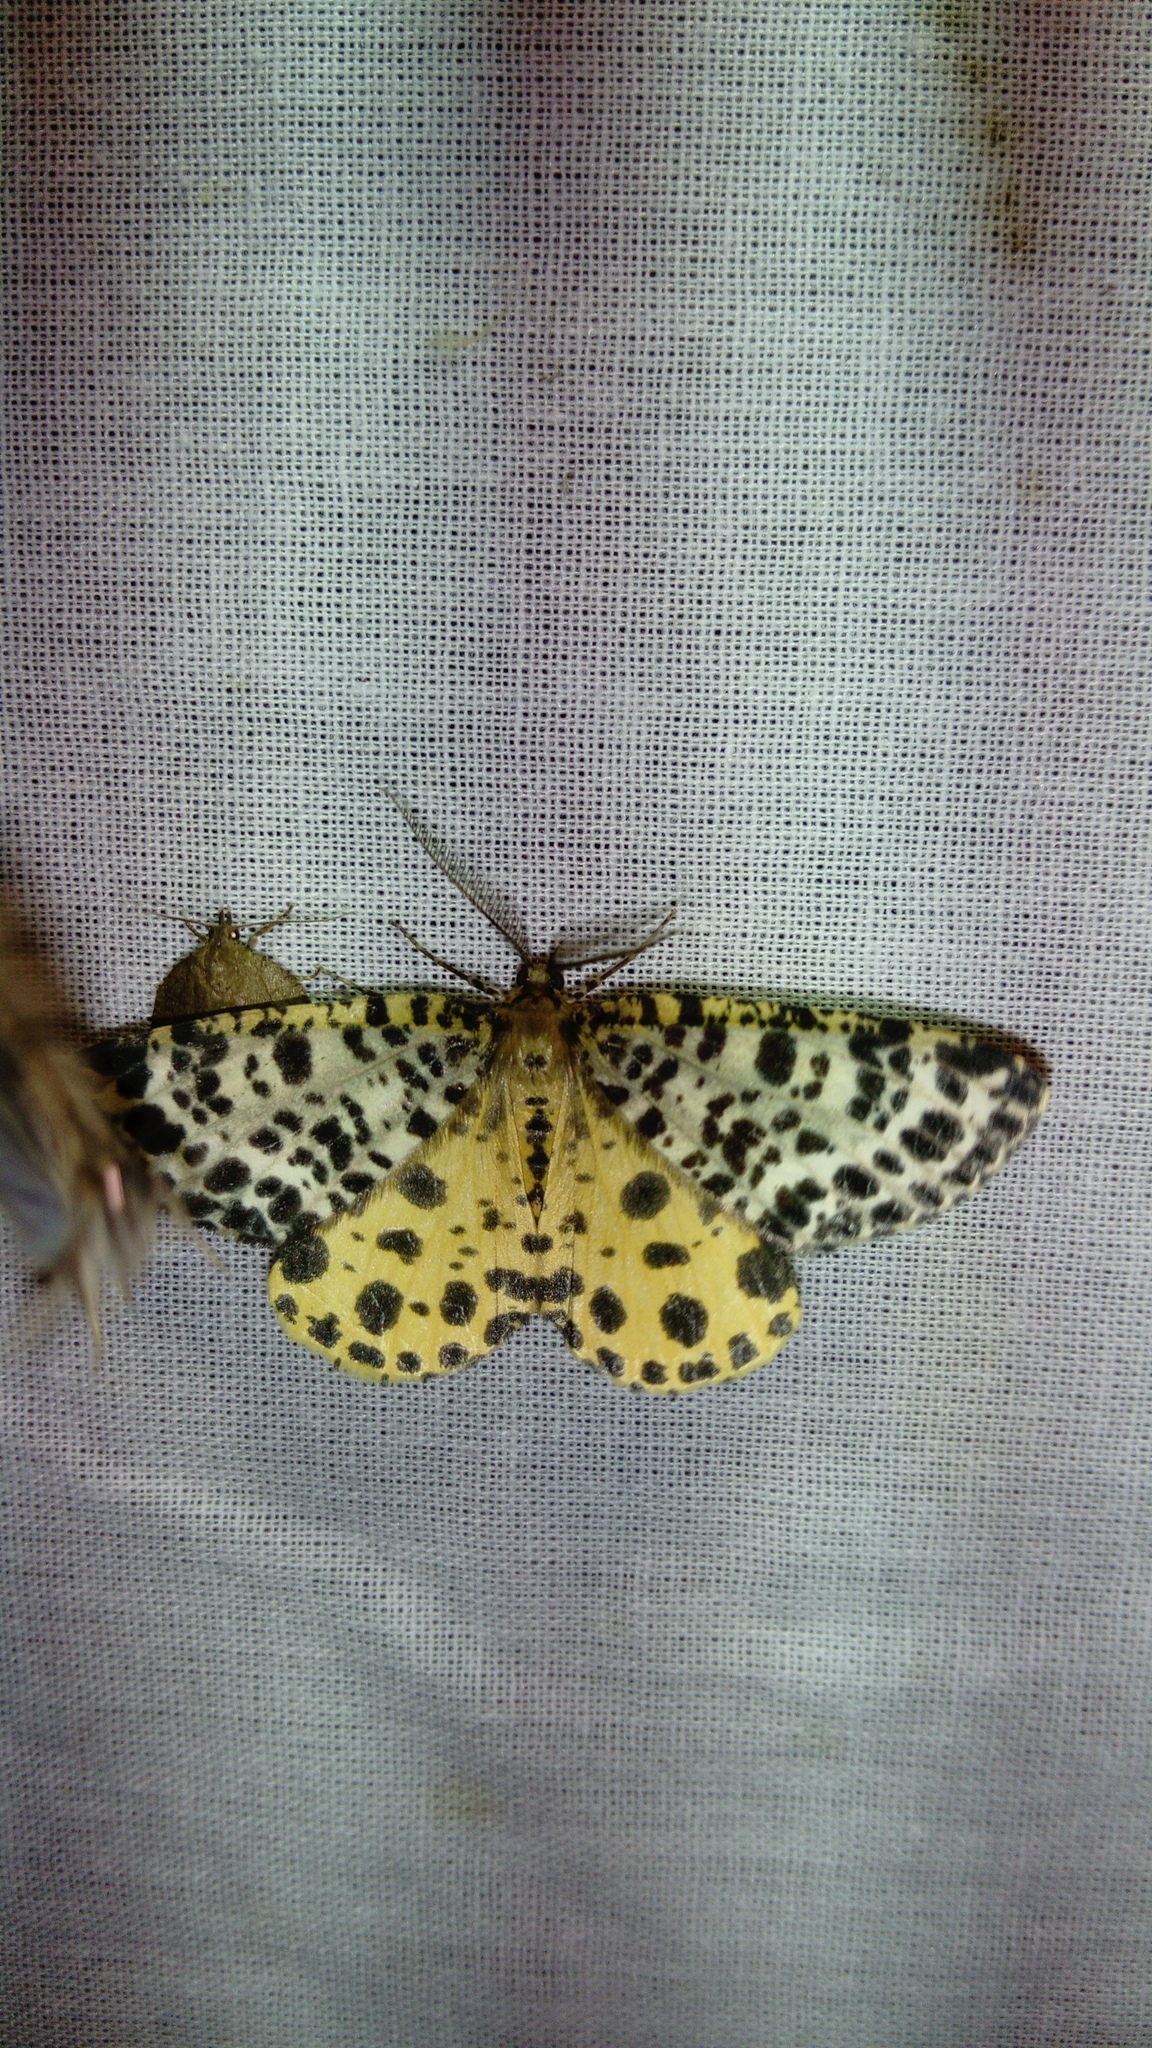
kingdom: Animalia
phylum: Arthropoda
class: Insecta
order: Lepidoptera
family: Geometridae
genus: Arichanna
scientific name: Arichanna melanaria
